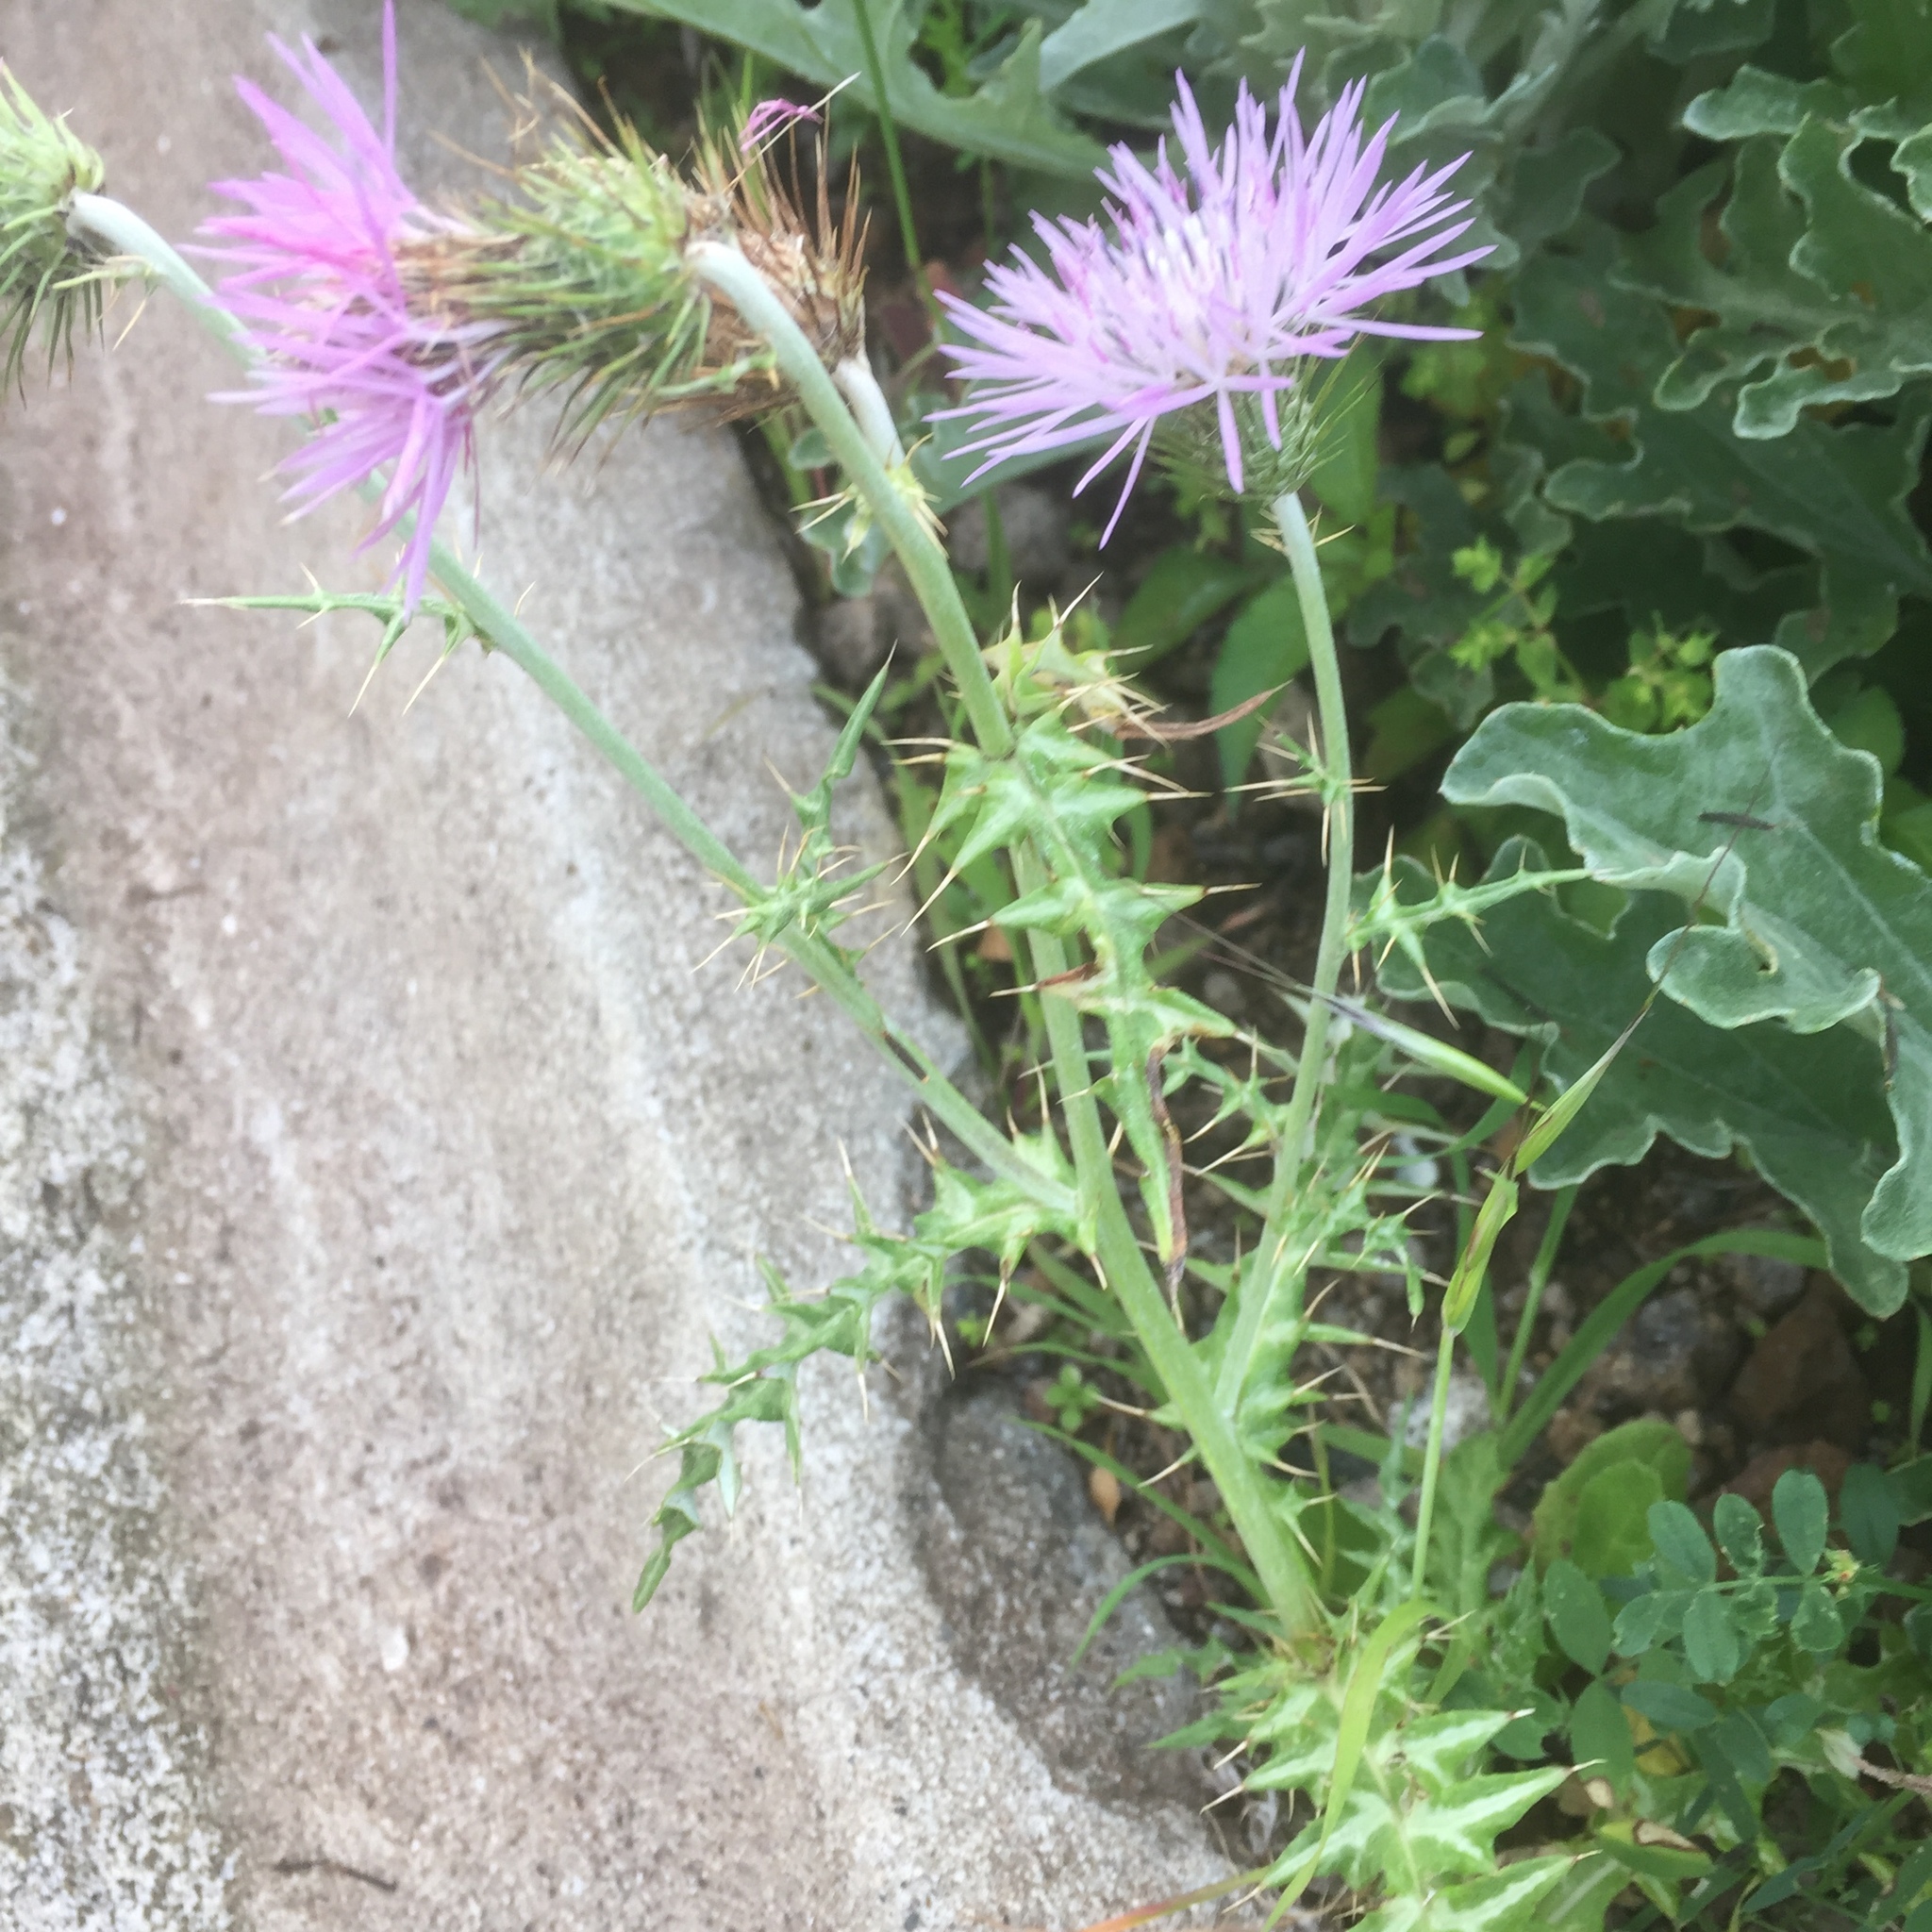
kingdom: Plantae
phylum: Tracheophyta
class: Magnoliopsida
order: Asterales
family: Asteraceae
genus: Galactites
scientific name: Galactites tomentosa
